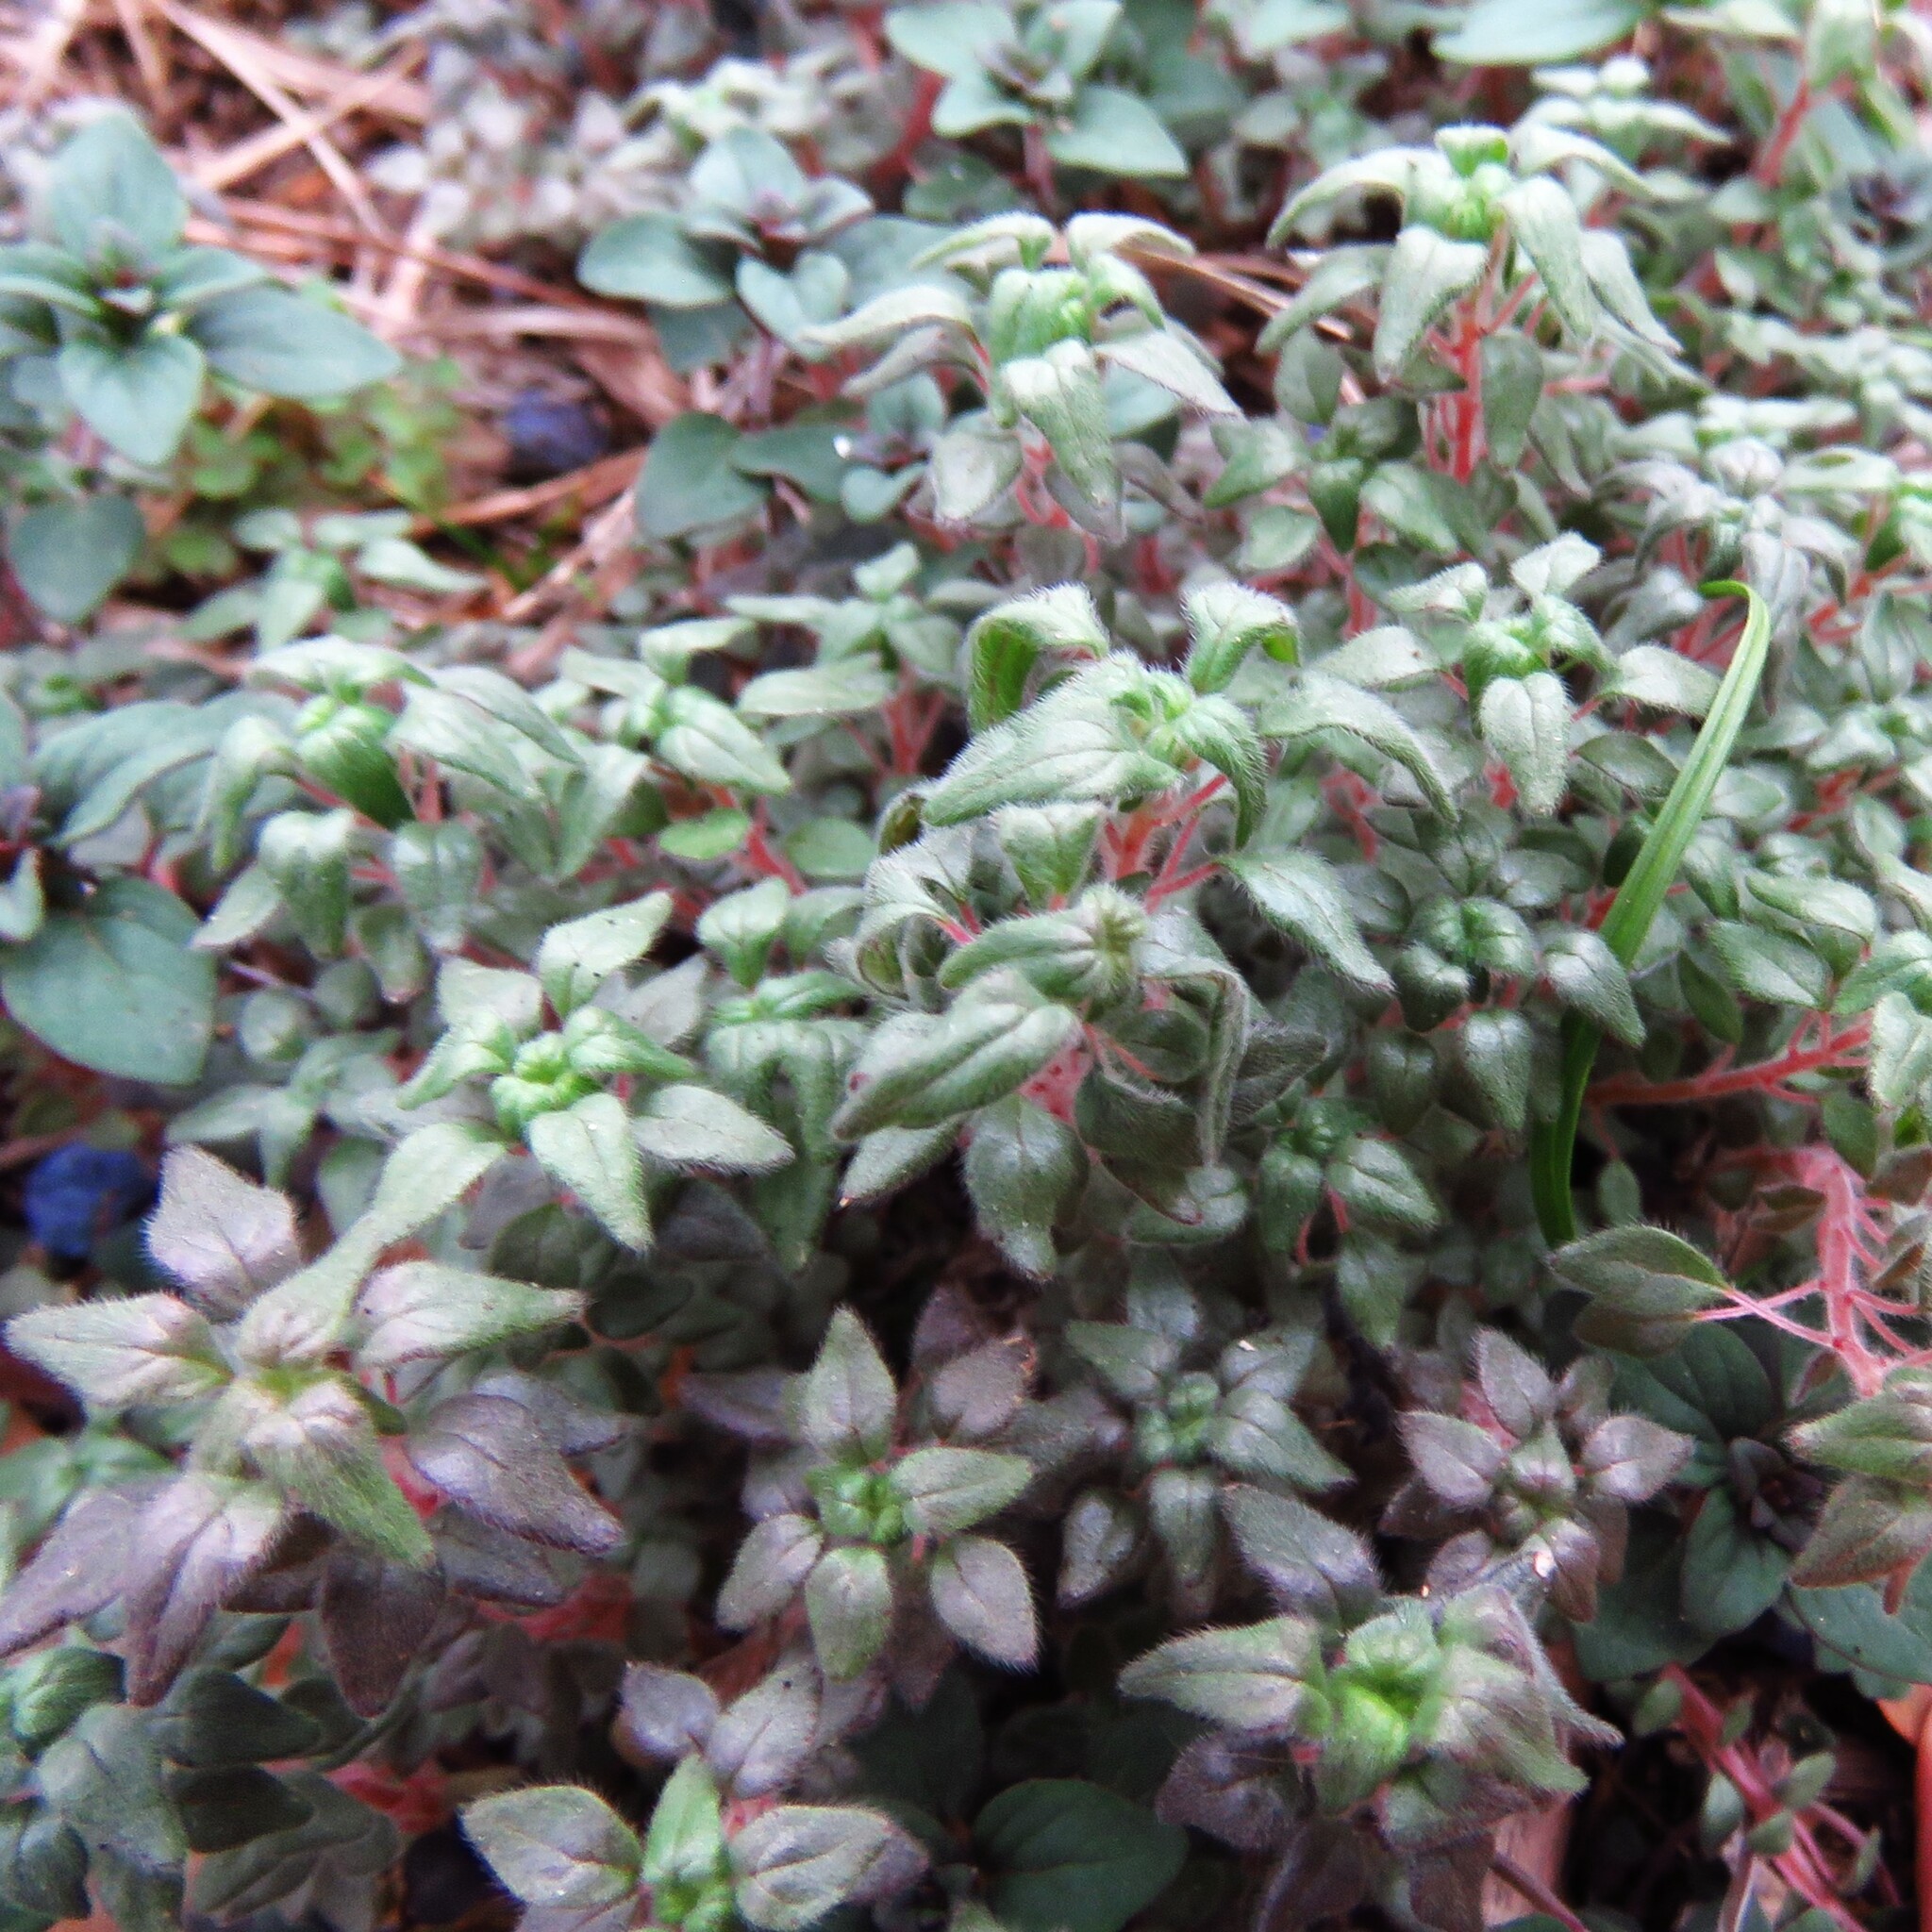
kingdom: Plantae
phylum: Tracheophyta
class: Magnoliopsida
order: Rosales
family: Urticaceae
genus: Parietaria
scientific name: Parietaria pensylvanica
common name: Pennsylvania pellitory
